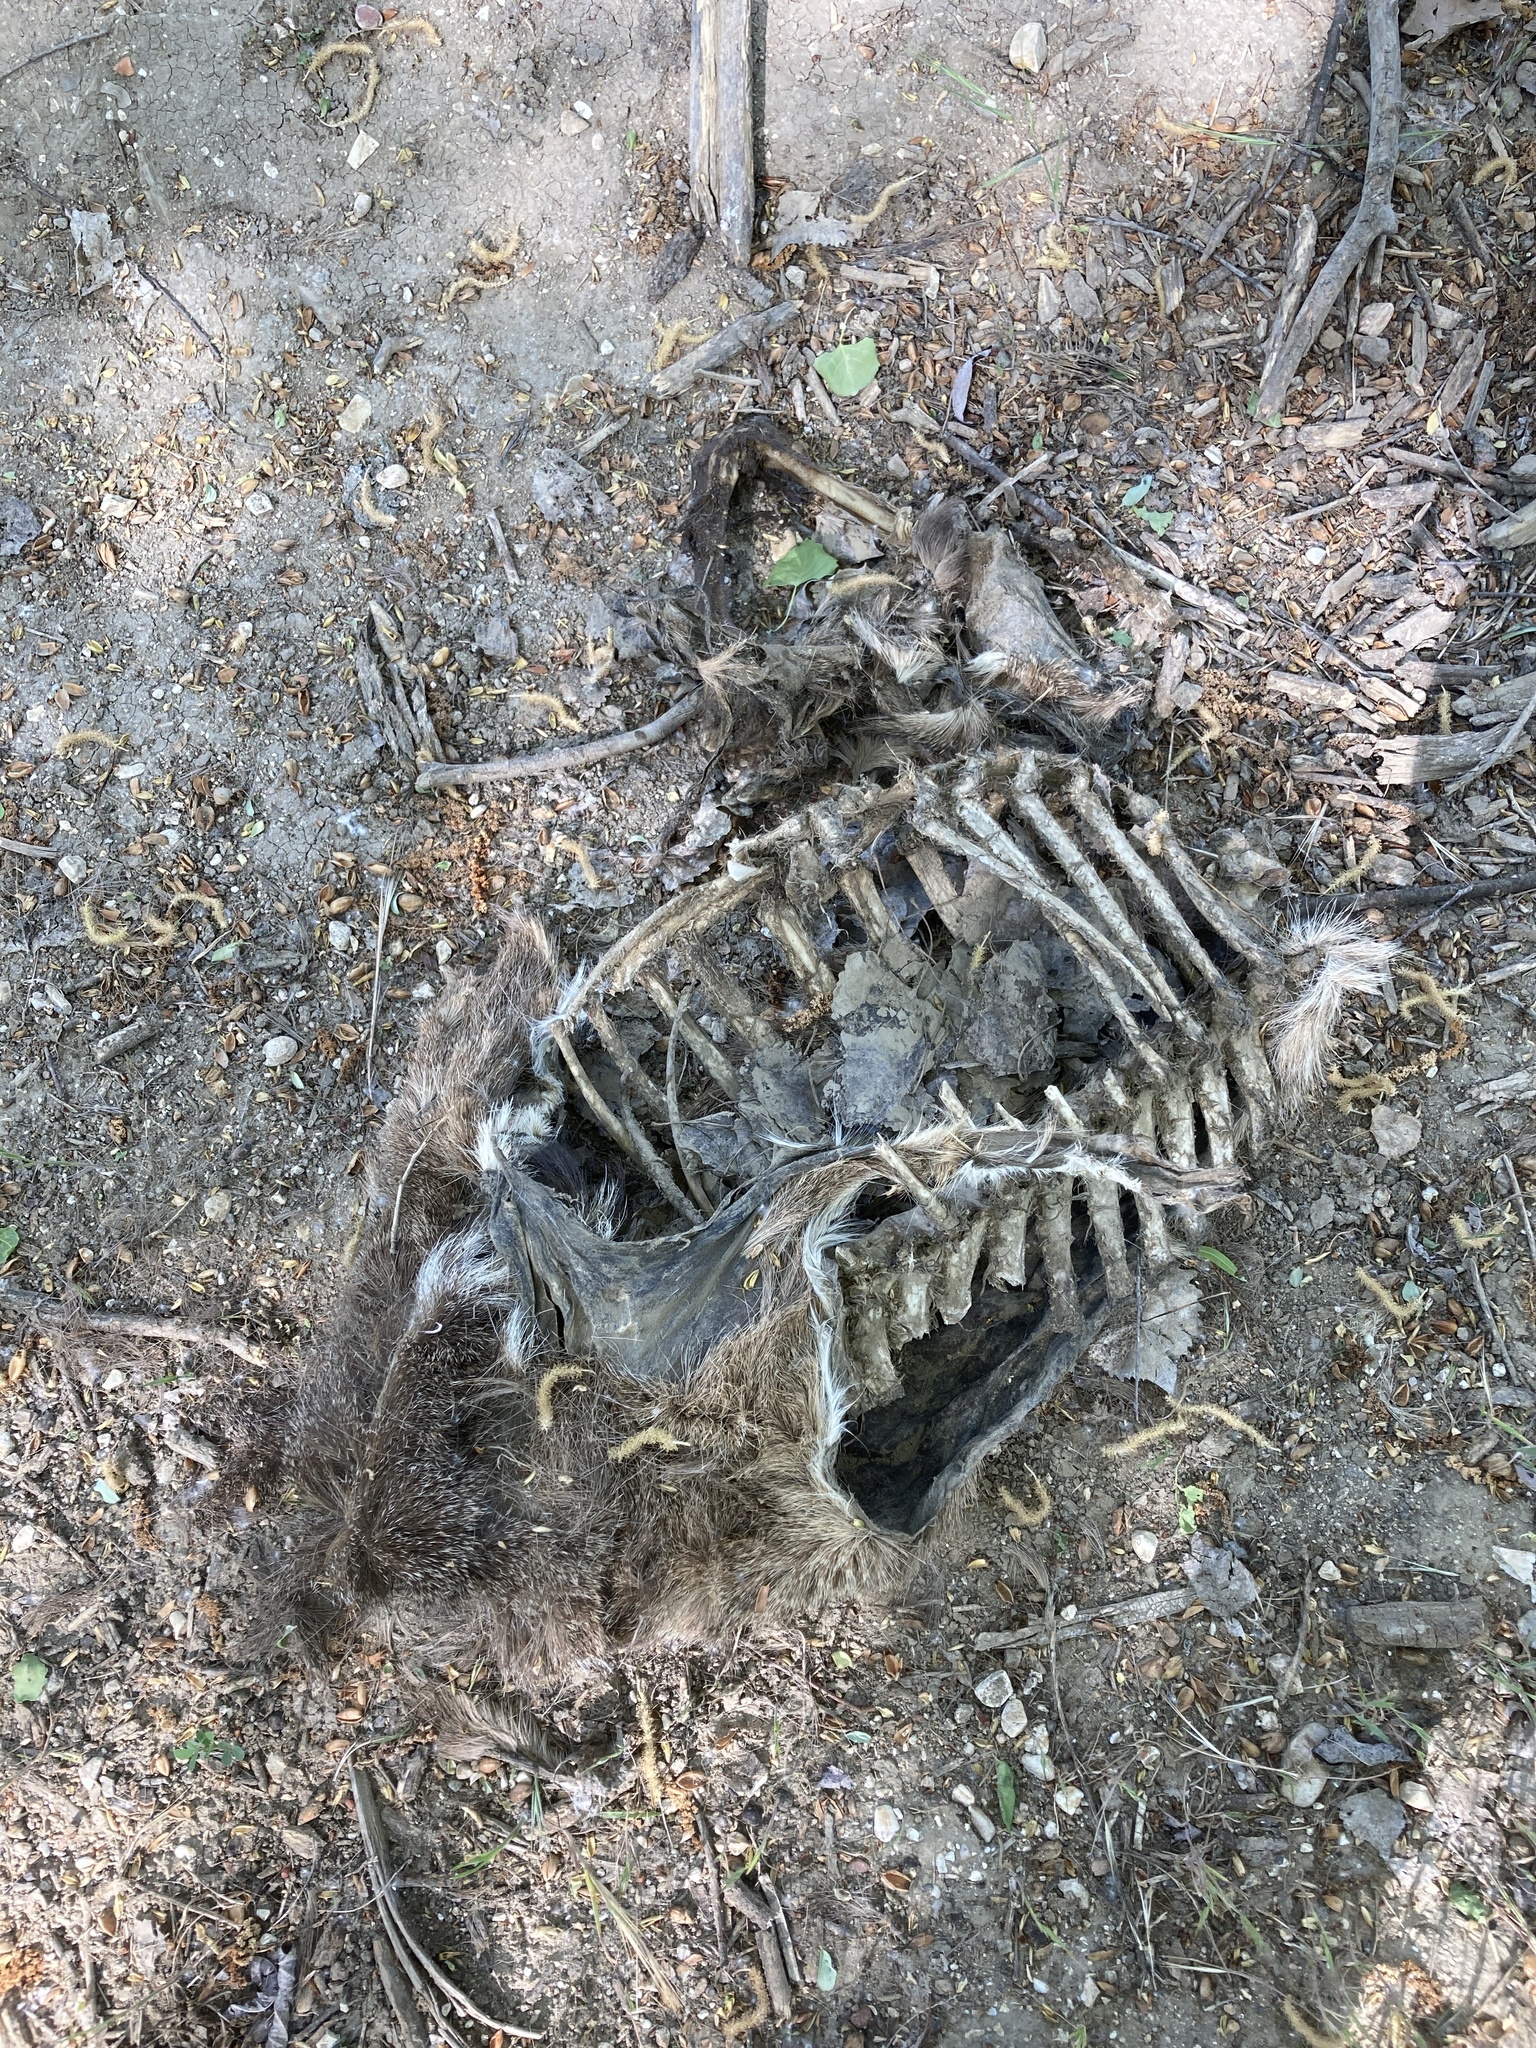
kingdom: Animalia
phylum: Chordata
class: Mammalia
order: Artiodactyla
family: Cervidae
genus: Odocoileus
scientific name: Odocoileus hemionus
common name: Mule deer
